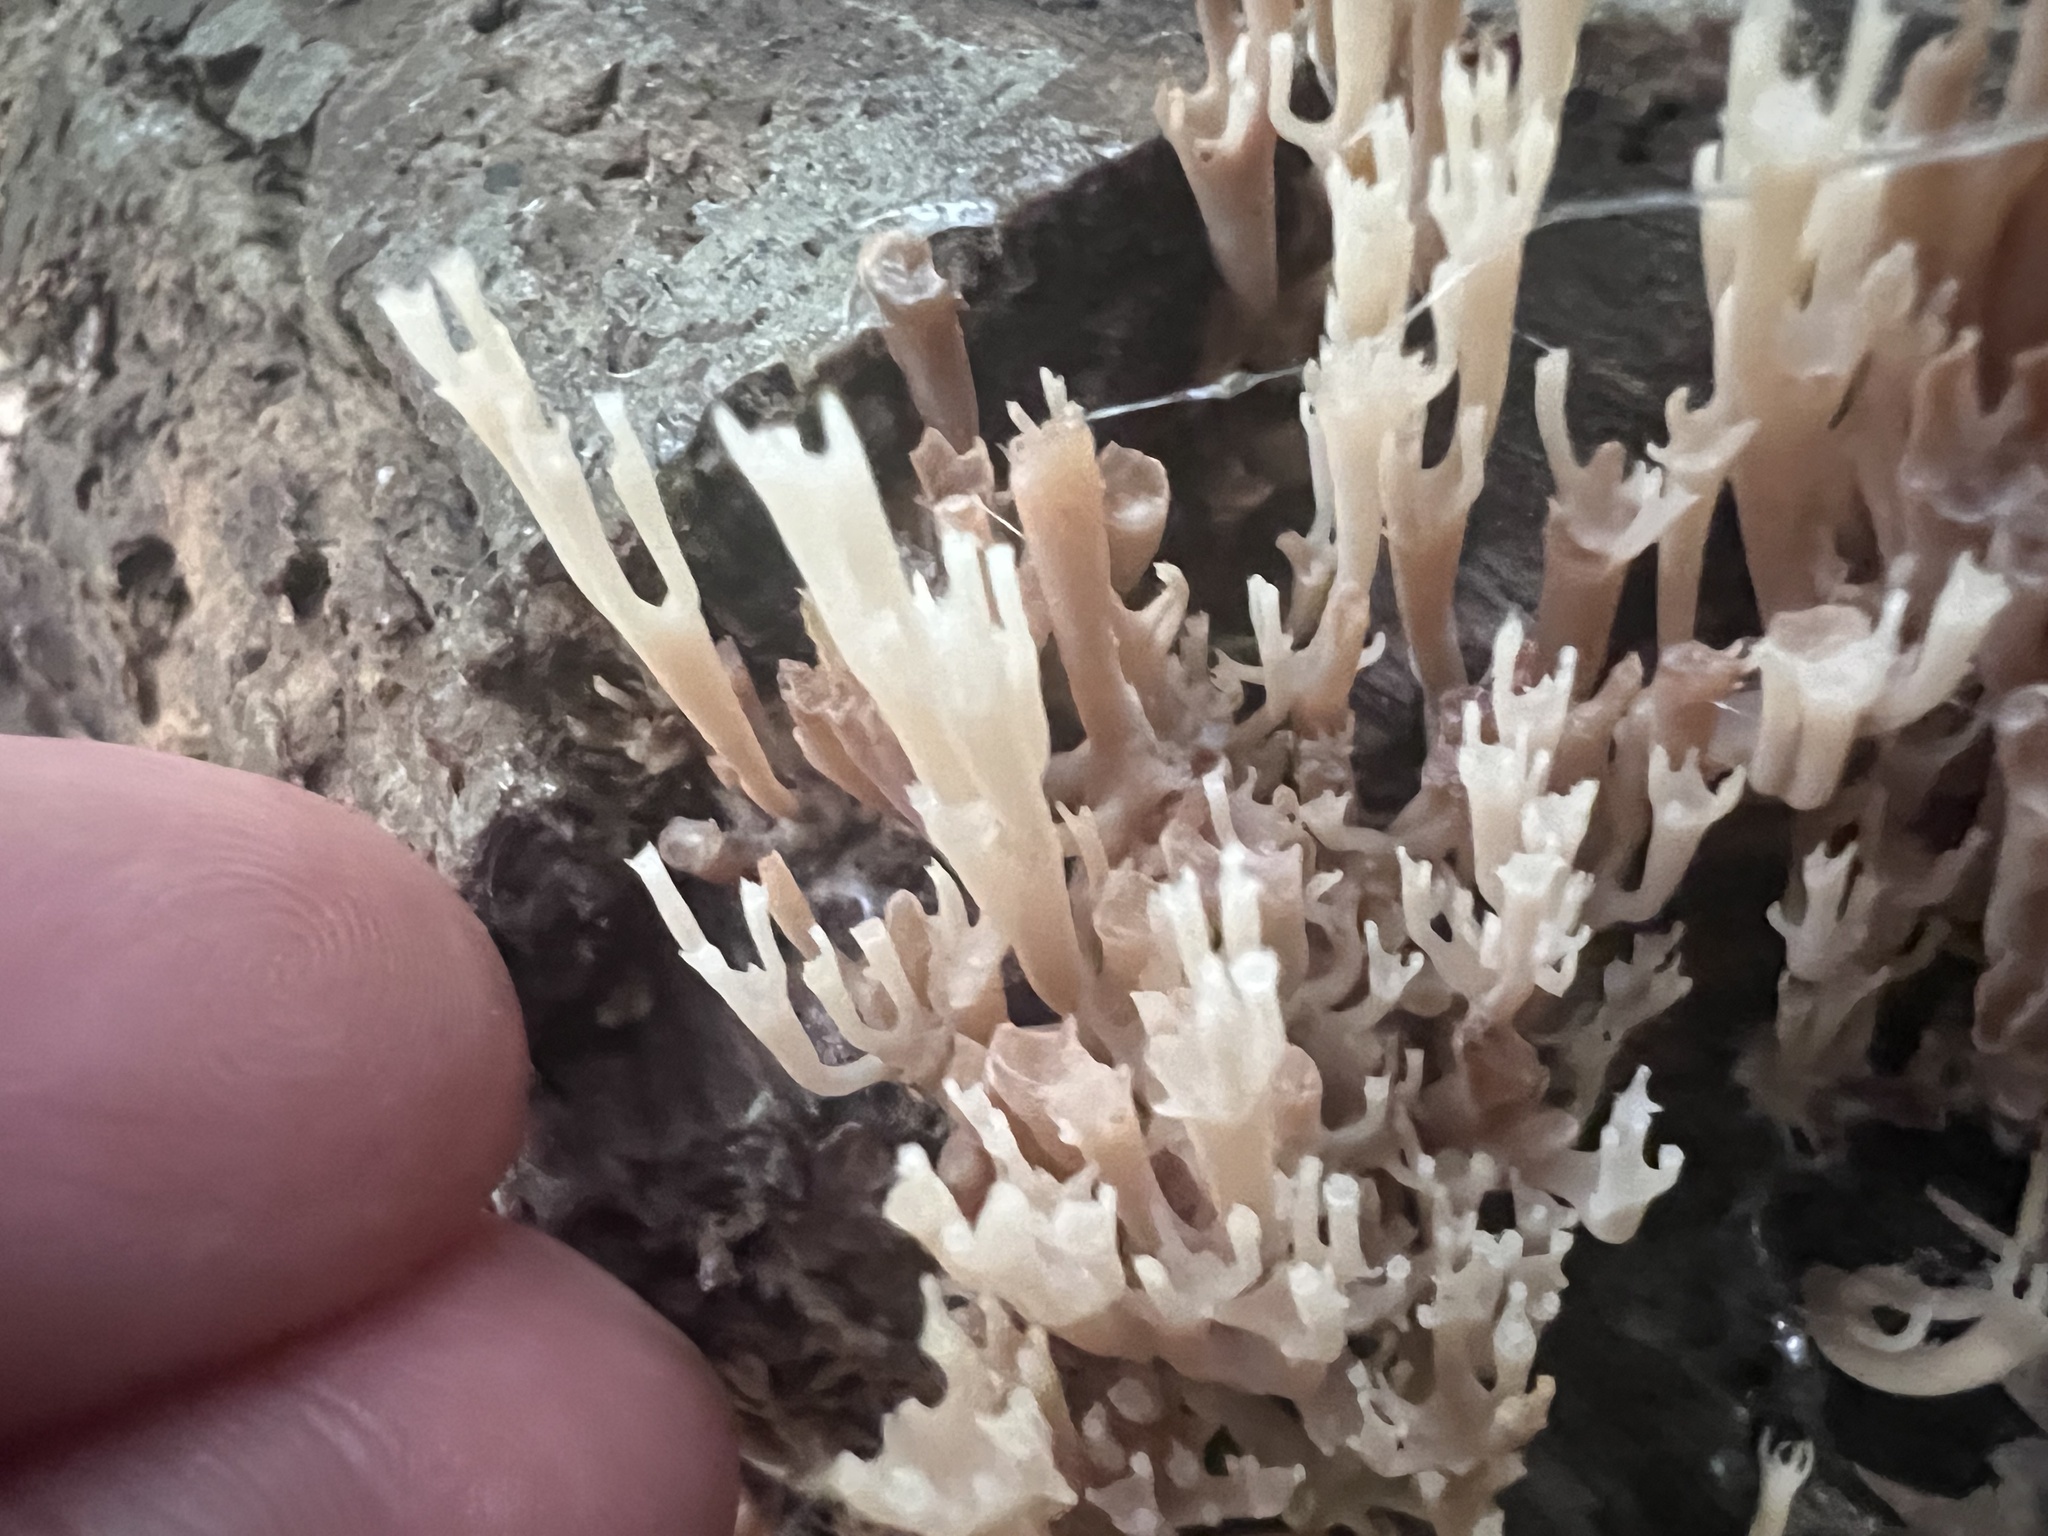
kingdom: Fungi
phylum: Basidiomycota
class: Agaricomycetes
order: Russulales
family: Auriscalpiaceae
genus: Artomyces
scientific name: Artomyces pyxidatus
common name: Crown-tipped coral fungus
